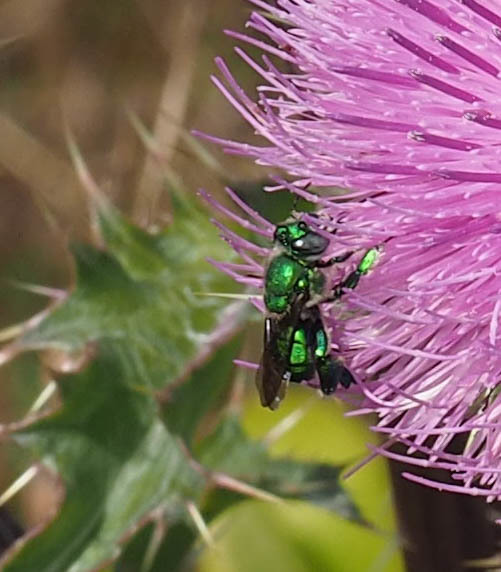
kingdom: Animalia
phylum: Arthropoda
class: Insecta
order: Hymenoptera
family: Apidae
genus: Euglossa
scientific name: Euglossa dilemma
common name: Green orchid bee
